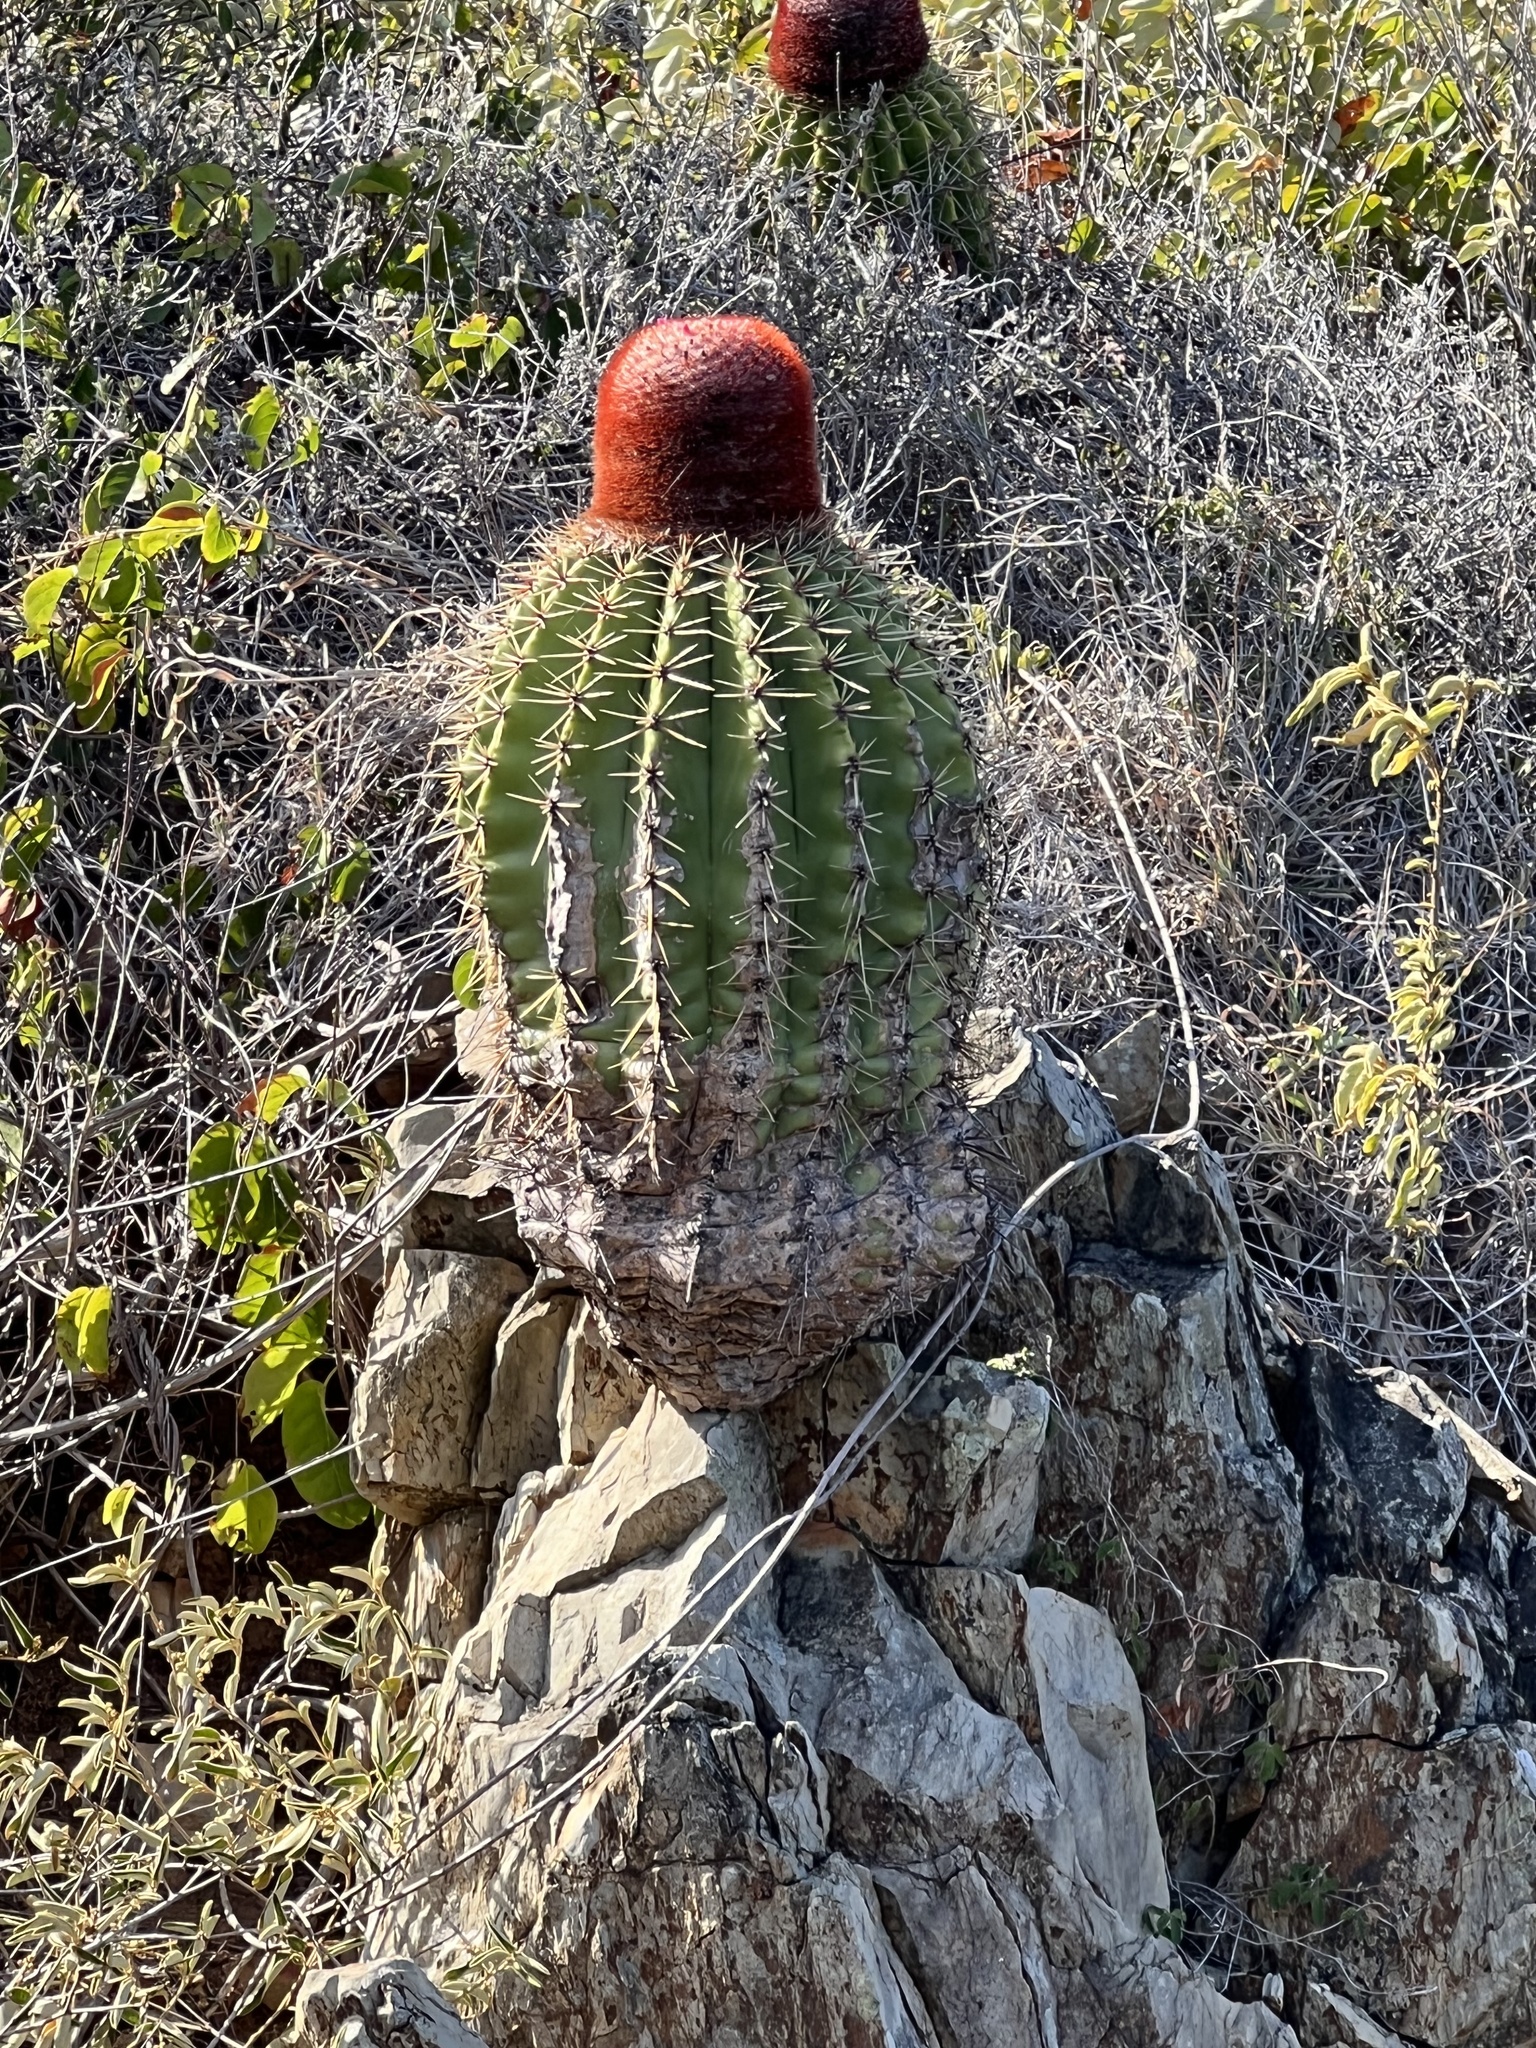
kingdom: Plantae
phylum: Tracheophyta
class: Magnoliopsida
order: Caryophyllales
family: Cactaceae
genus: Melocactus
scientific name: Melocactus intortus
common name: Barrel cactus
